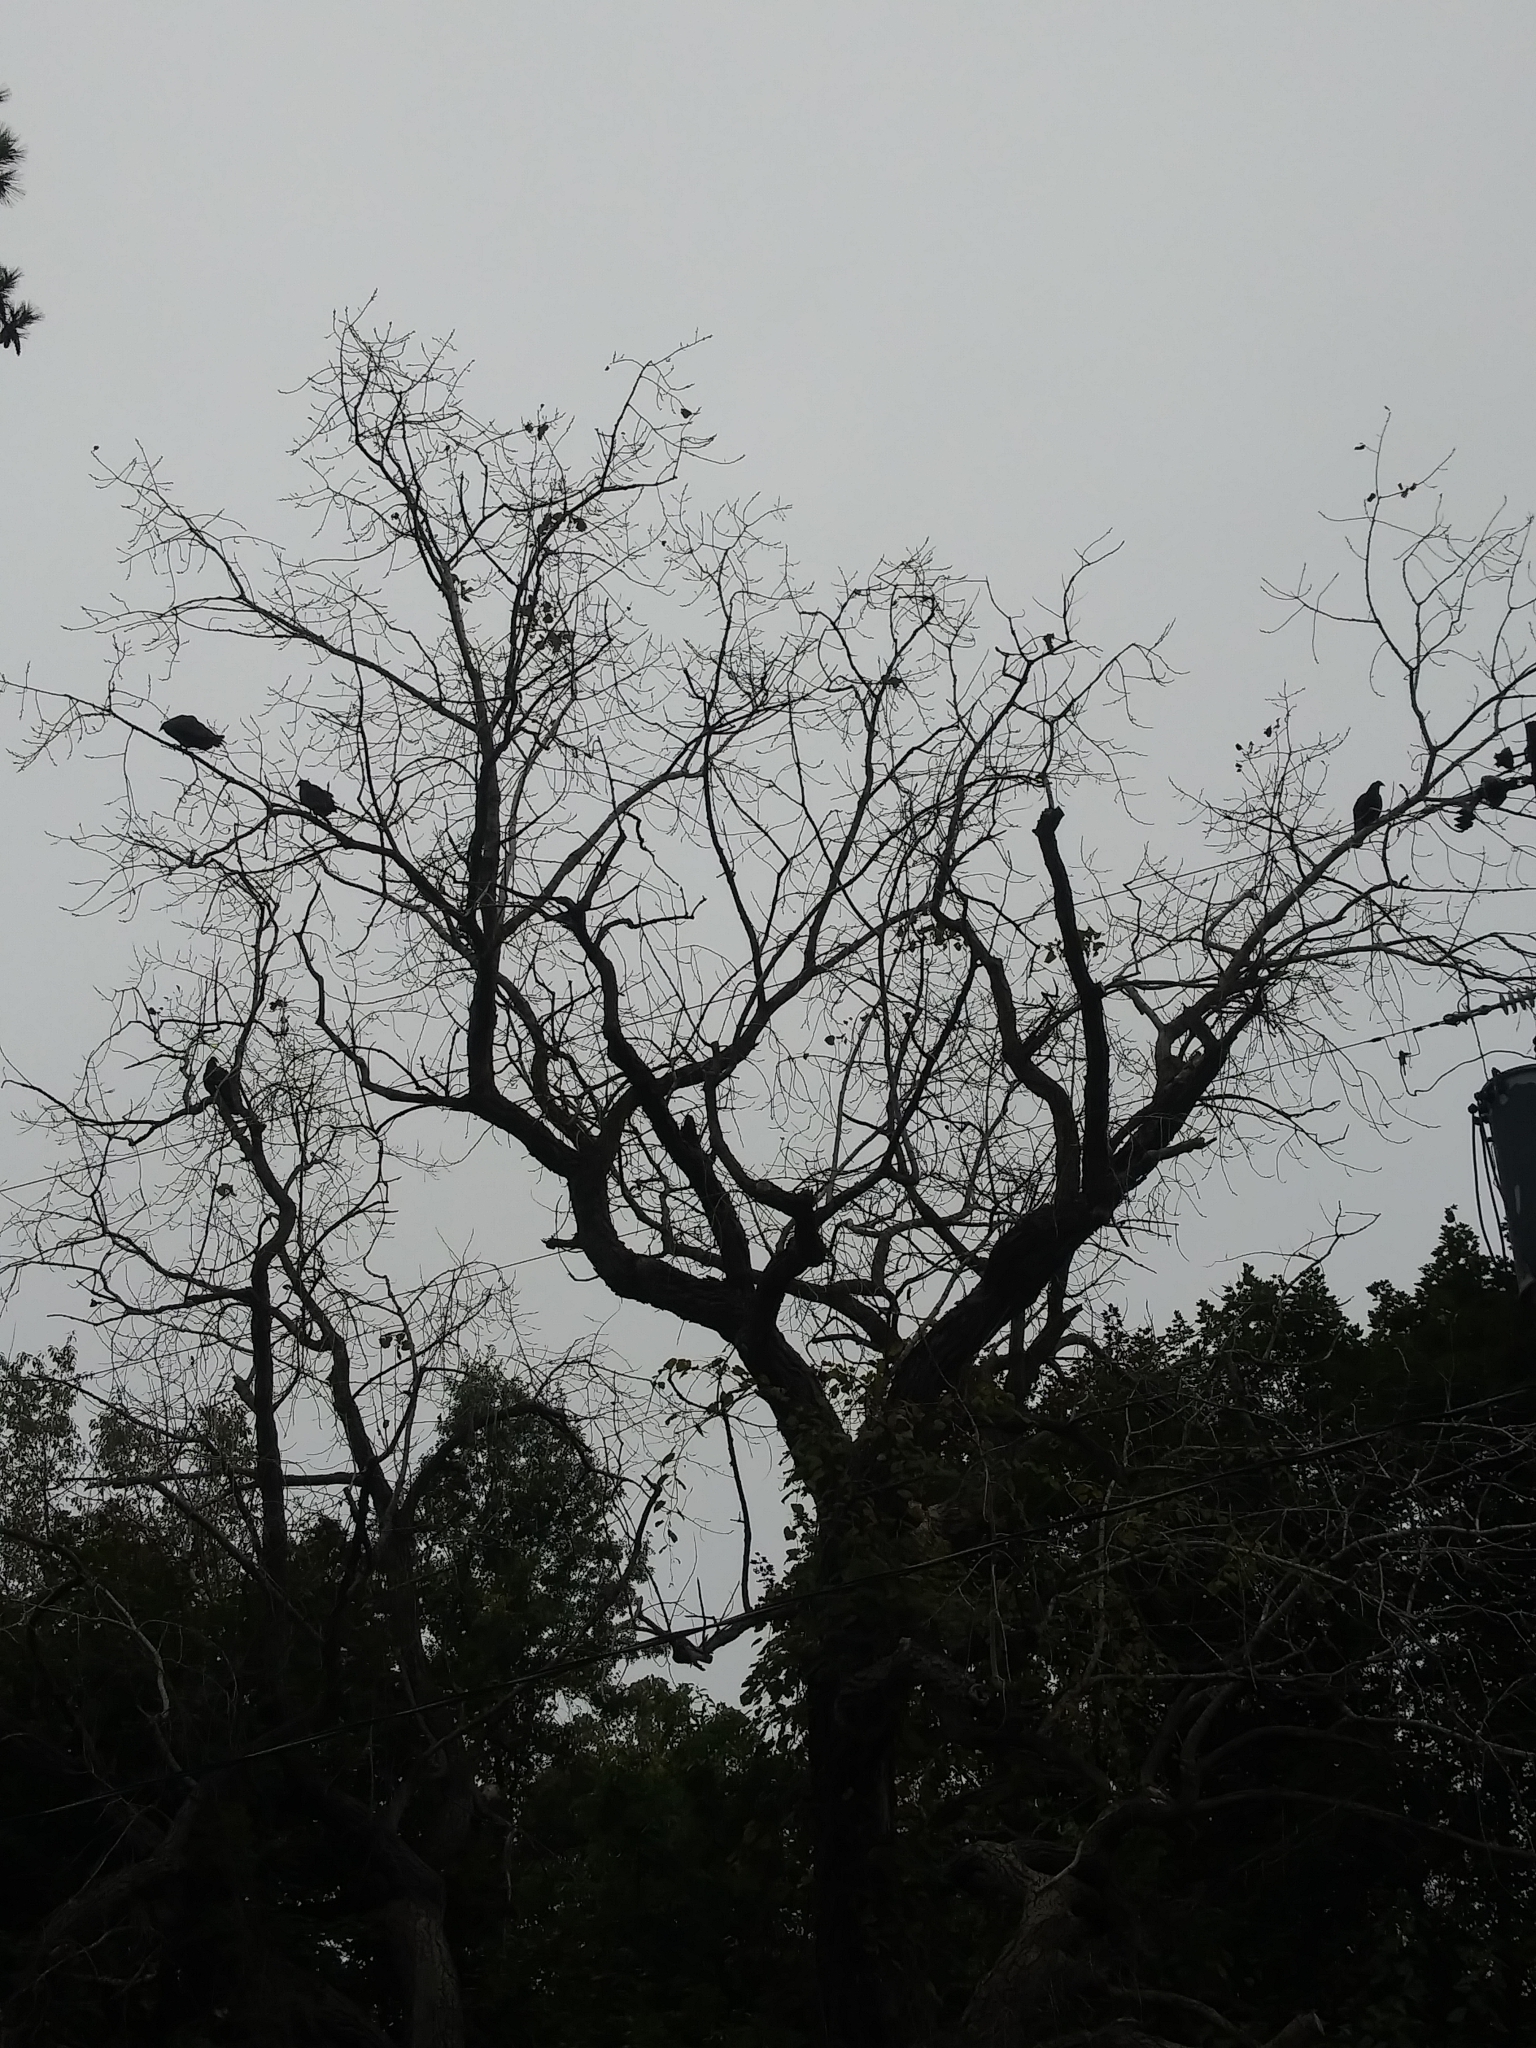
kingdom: Animalia
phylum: Chordata
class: Aves
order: Accipitriformes
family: Cathartidae
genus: Cathartes
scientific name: Cathartes aura
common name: Turkey vulture
